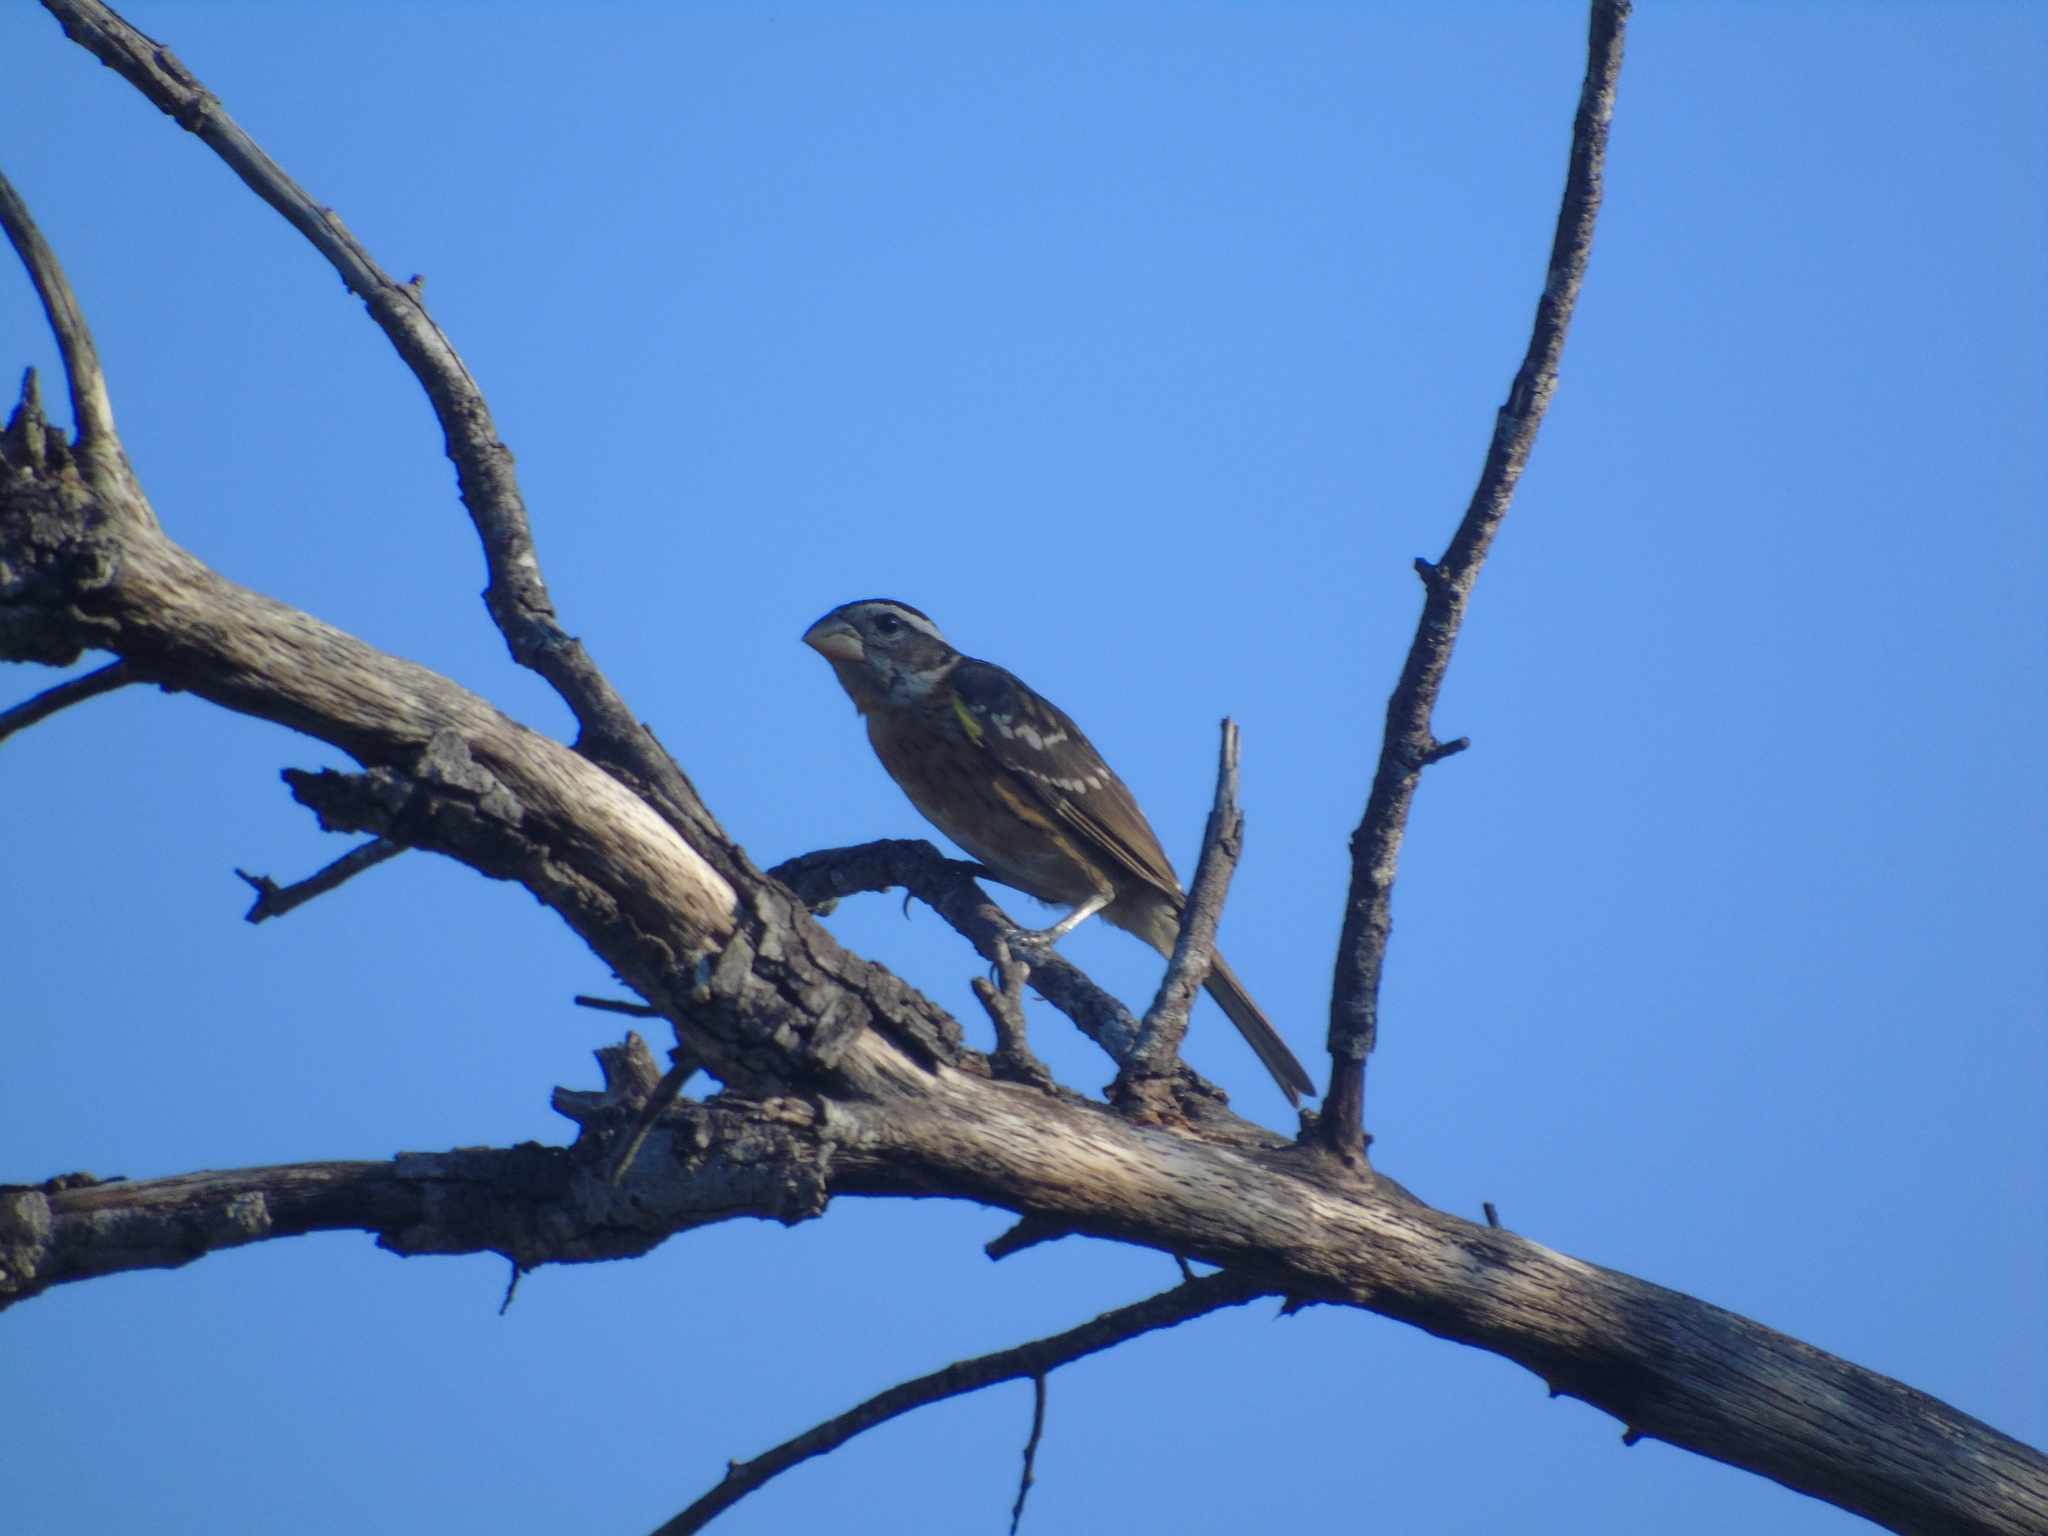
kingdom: Animalia
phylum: Chordata
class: Aves
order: Passeriformes
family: Cardinalidae
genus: Pheucticus
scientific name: Pheucticus melanocephalus
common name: Black-headed grosbeak
